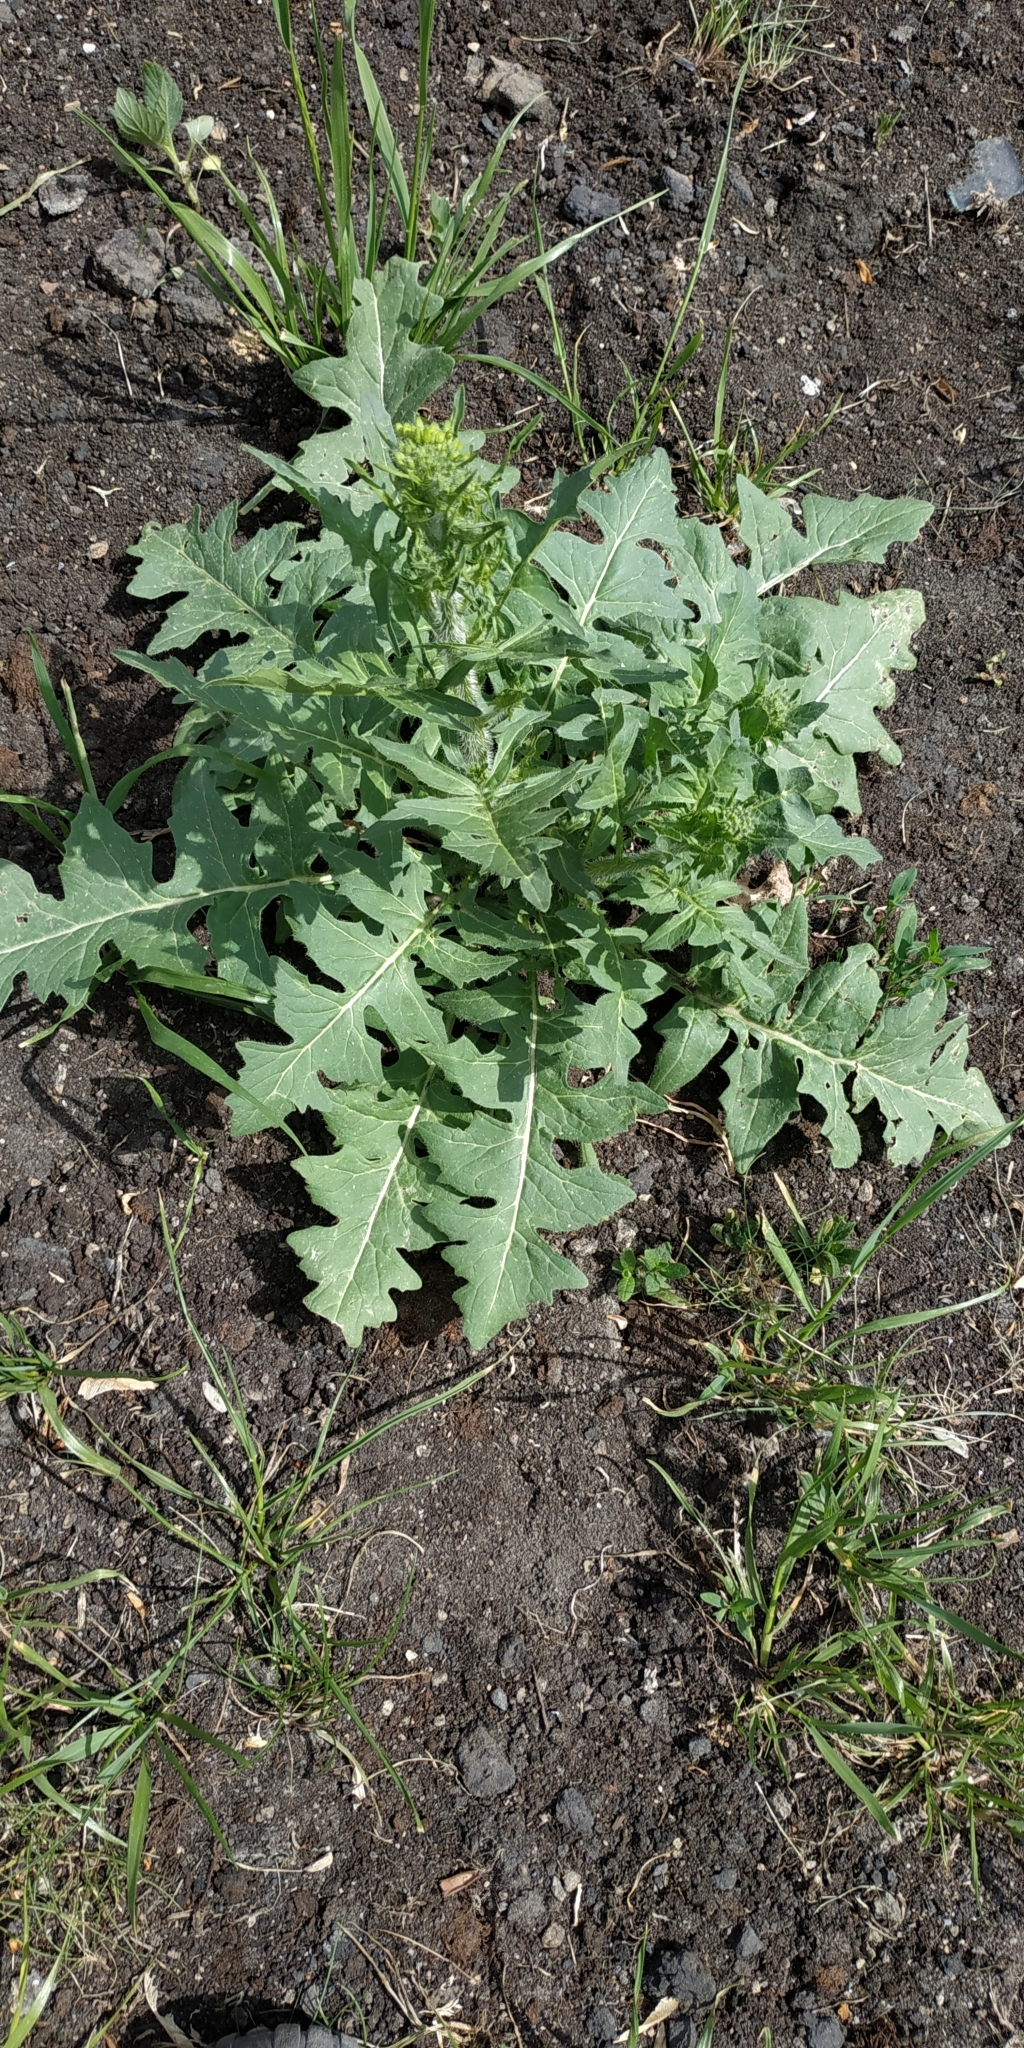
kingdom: Plantae
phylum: Tracheophyta
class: Magnoliopsida
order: Brassicales
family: Brassicaceae
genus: Sisymbrium
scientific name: Sisymbrium loeselii
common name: False london-rocket
